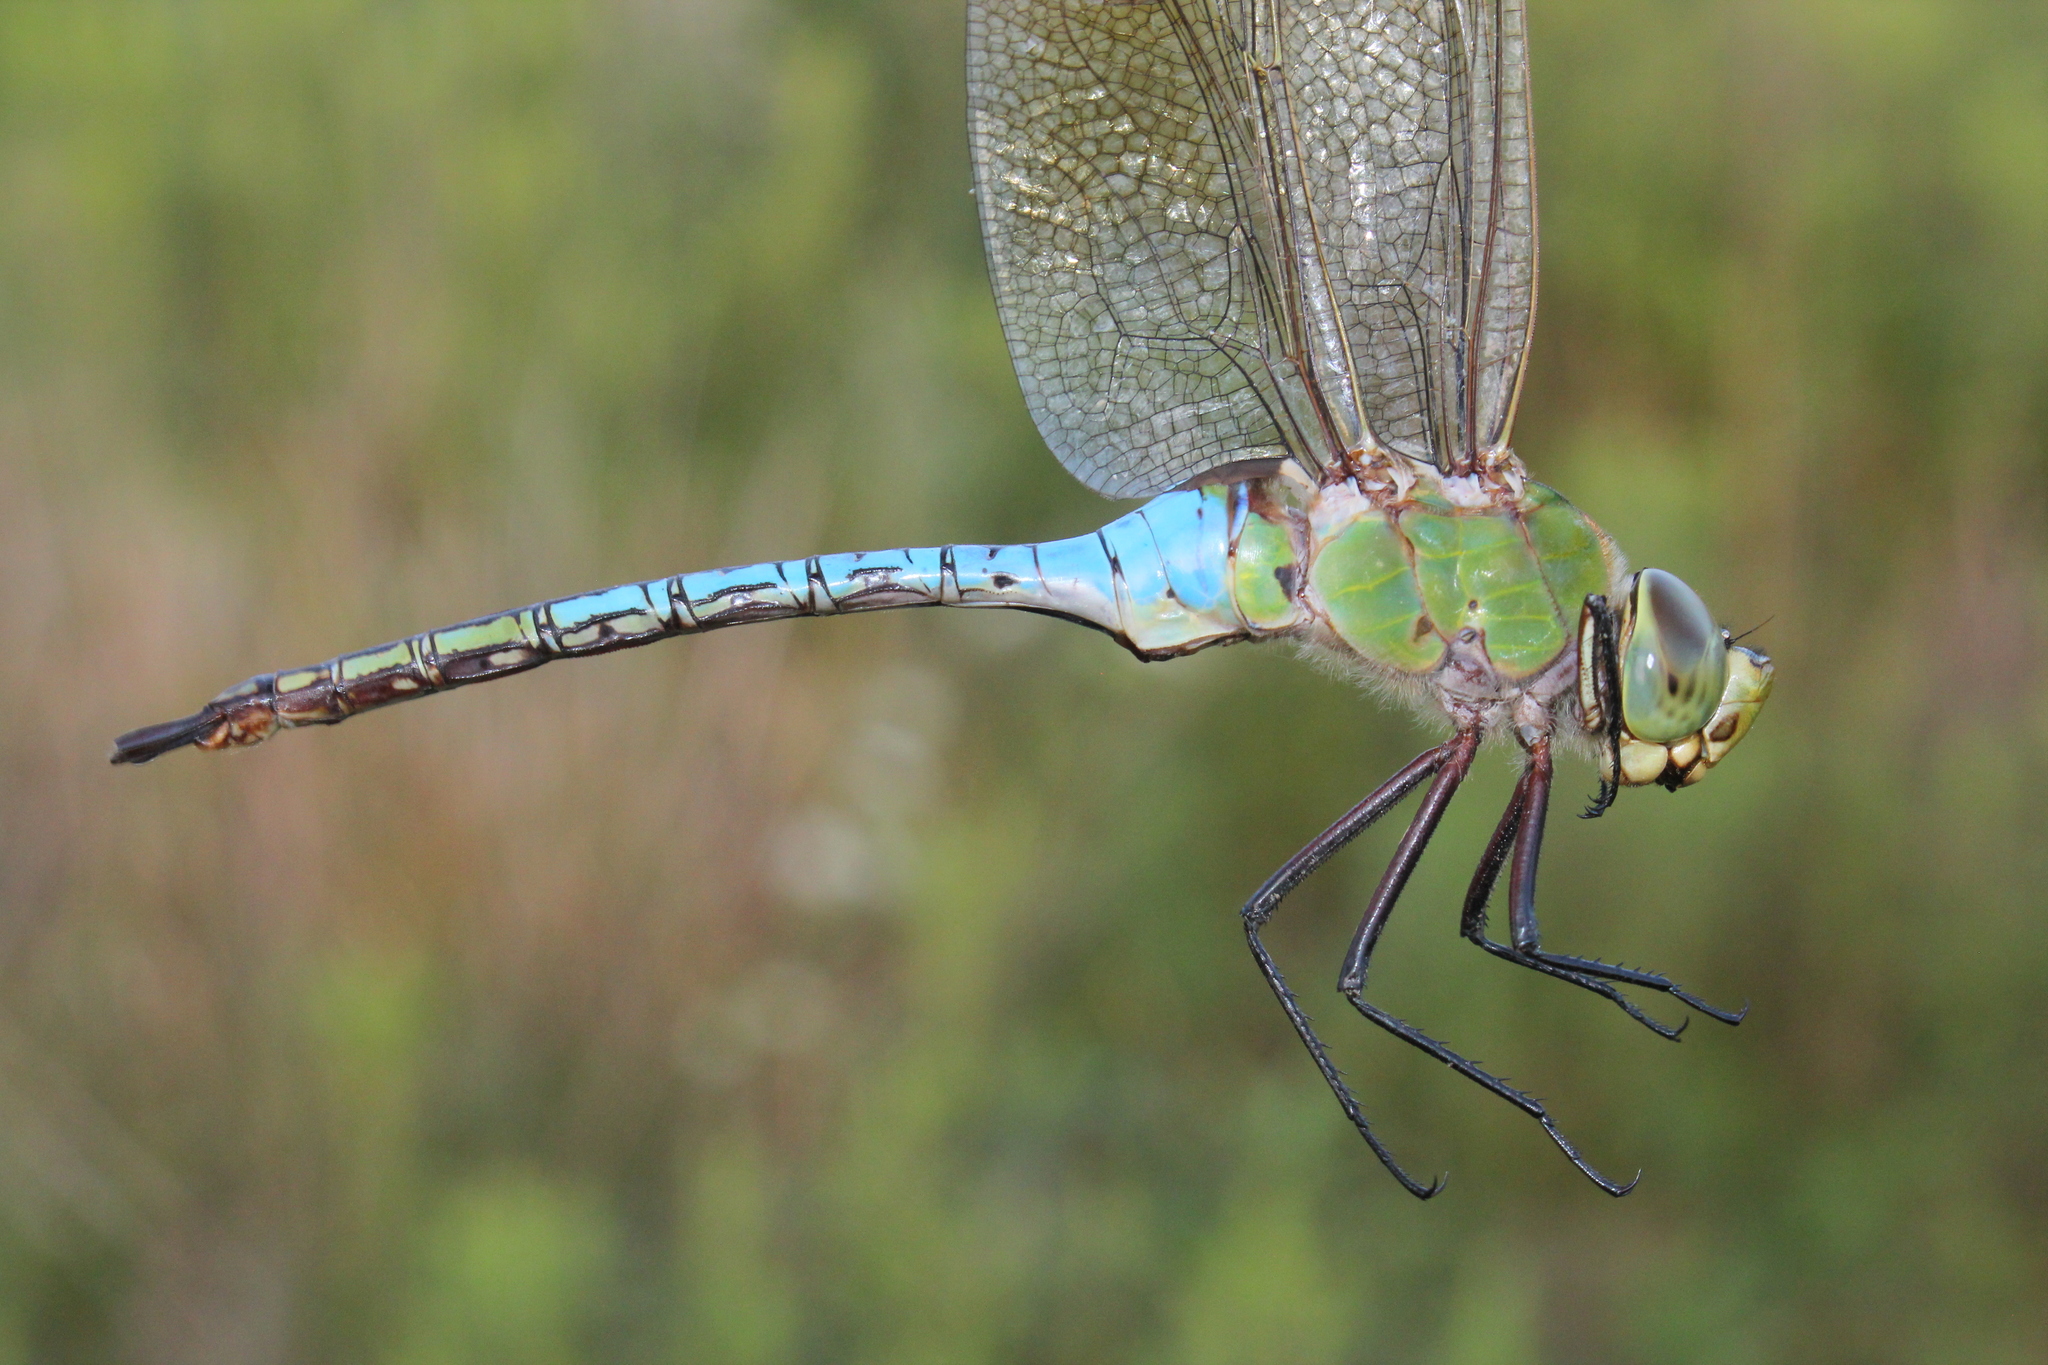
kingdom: Animalia
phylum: Arthropoda
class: Insecta
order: Odonata
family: Aeshnidae
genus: Anax
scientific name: Anax junius
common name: Common green darner
